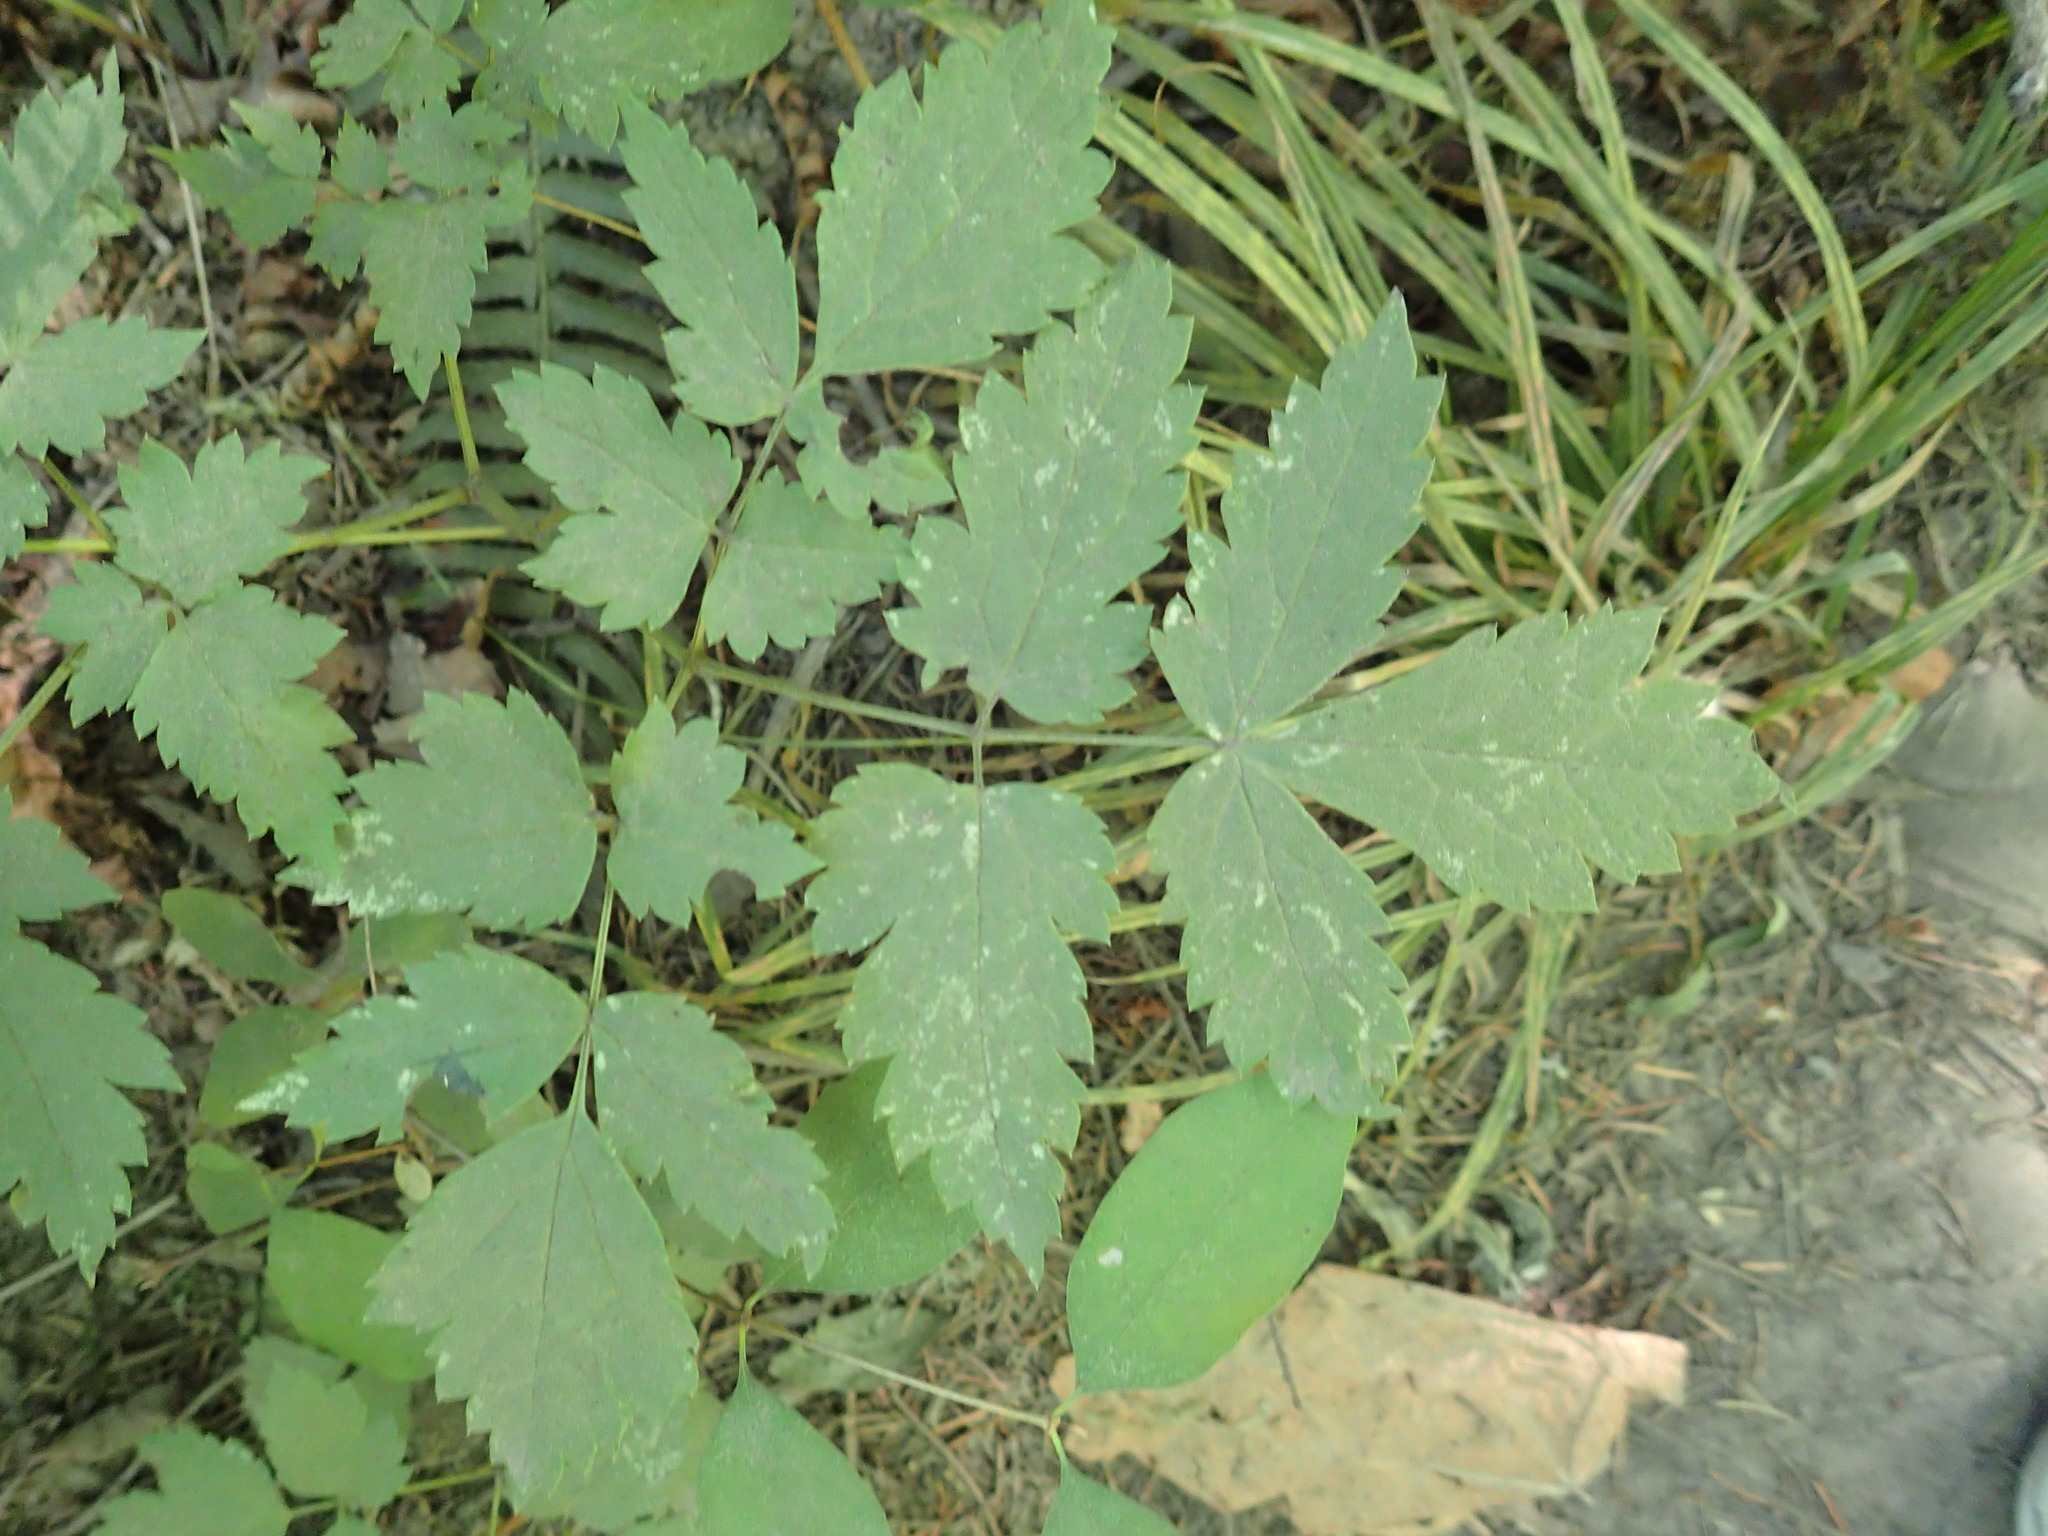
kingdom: Plantae
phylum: Tracheophyta
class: Magnoliopsida
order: Ranunculales
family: Ranunculaceae
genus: Actaea
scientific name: Actaea rubra
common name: Red baneberry
